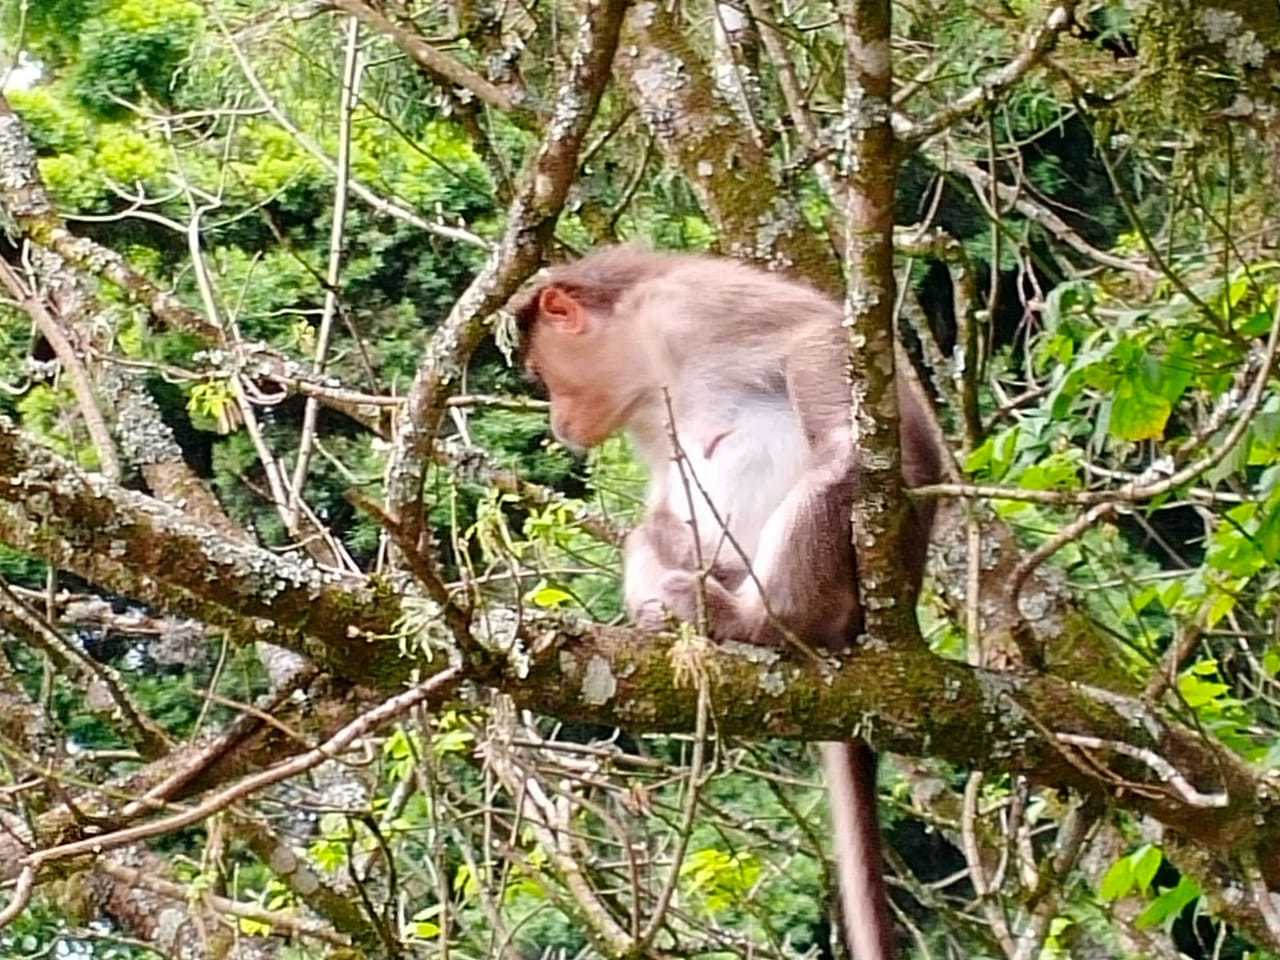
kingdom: Animalia
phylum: Chordata
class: Mammalia
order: Primates
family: Cercopithecidae
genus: Macaca
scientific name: Macaca radiata
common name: Bonnet macaque
